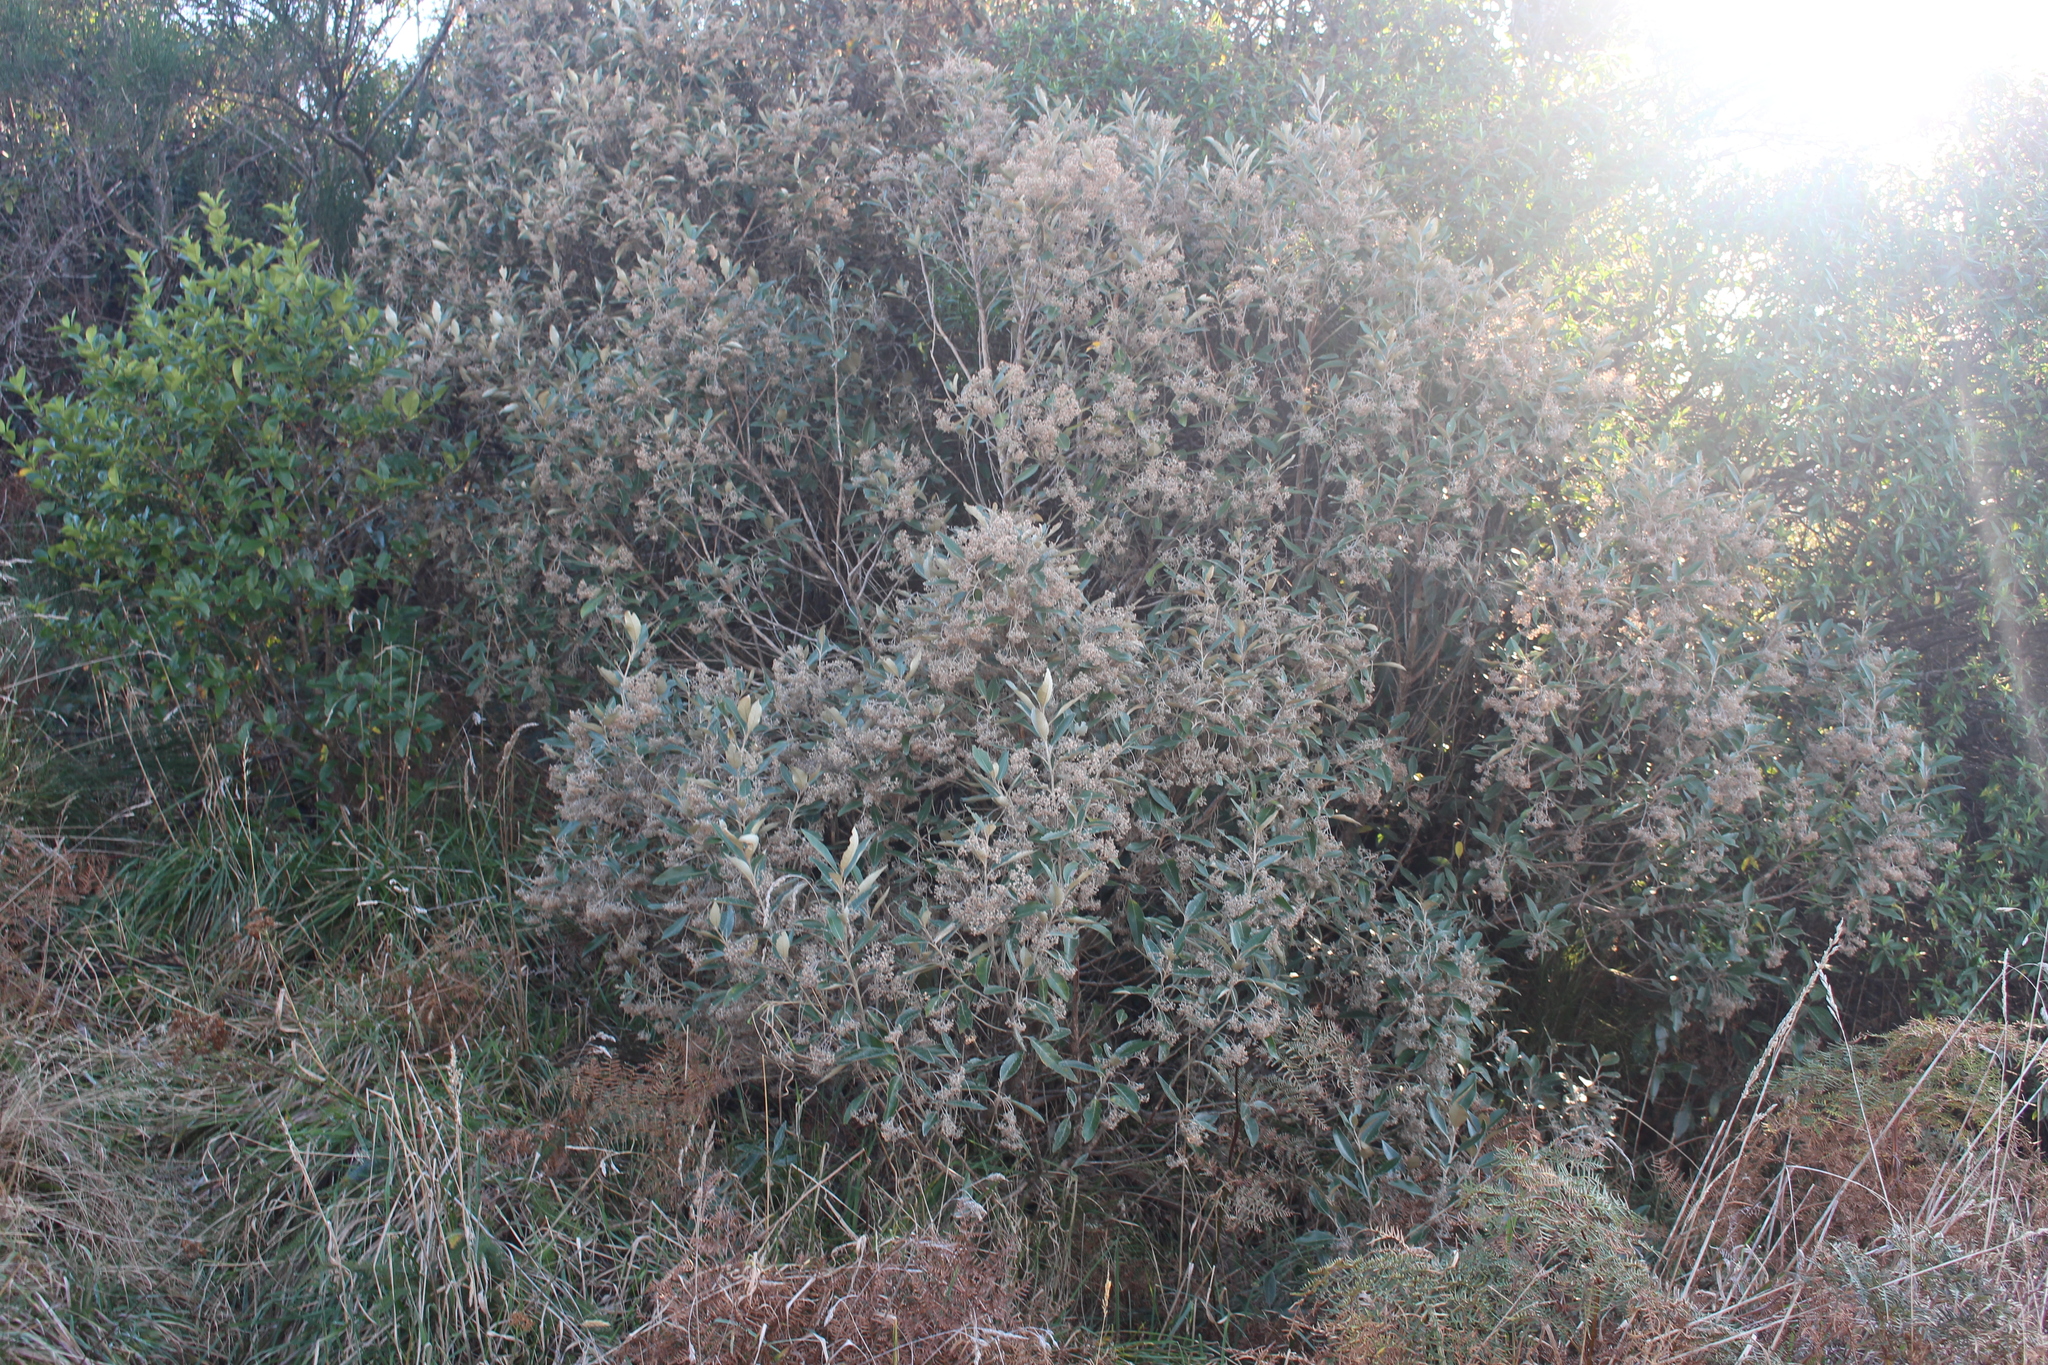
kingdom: Plantae
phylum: Tracheophyta
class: Magnoliopsida
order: Asterales
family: Asteraceae
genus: Olearia
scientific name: Olearia avicenniifolia
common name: Mangrove-leaf daisybush
